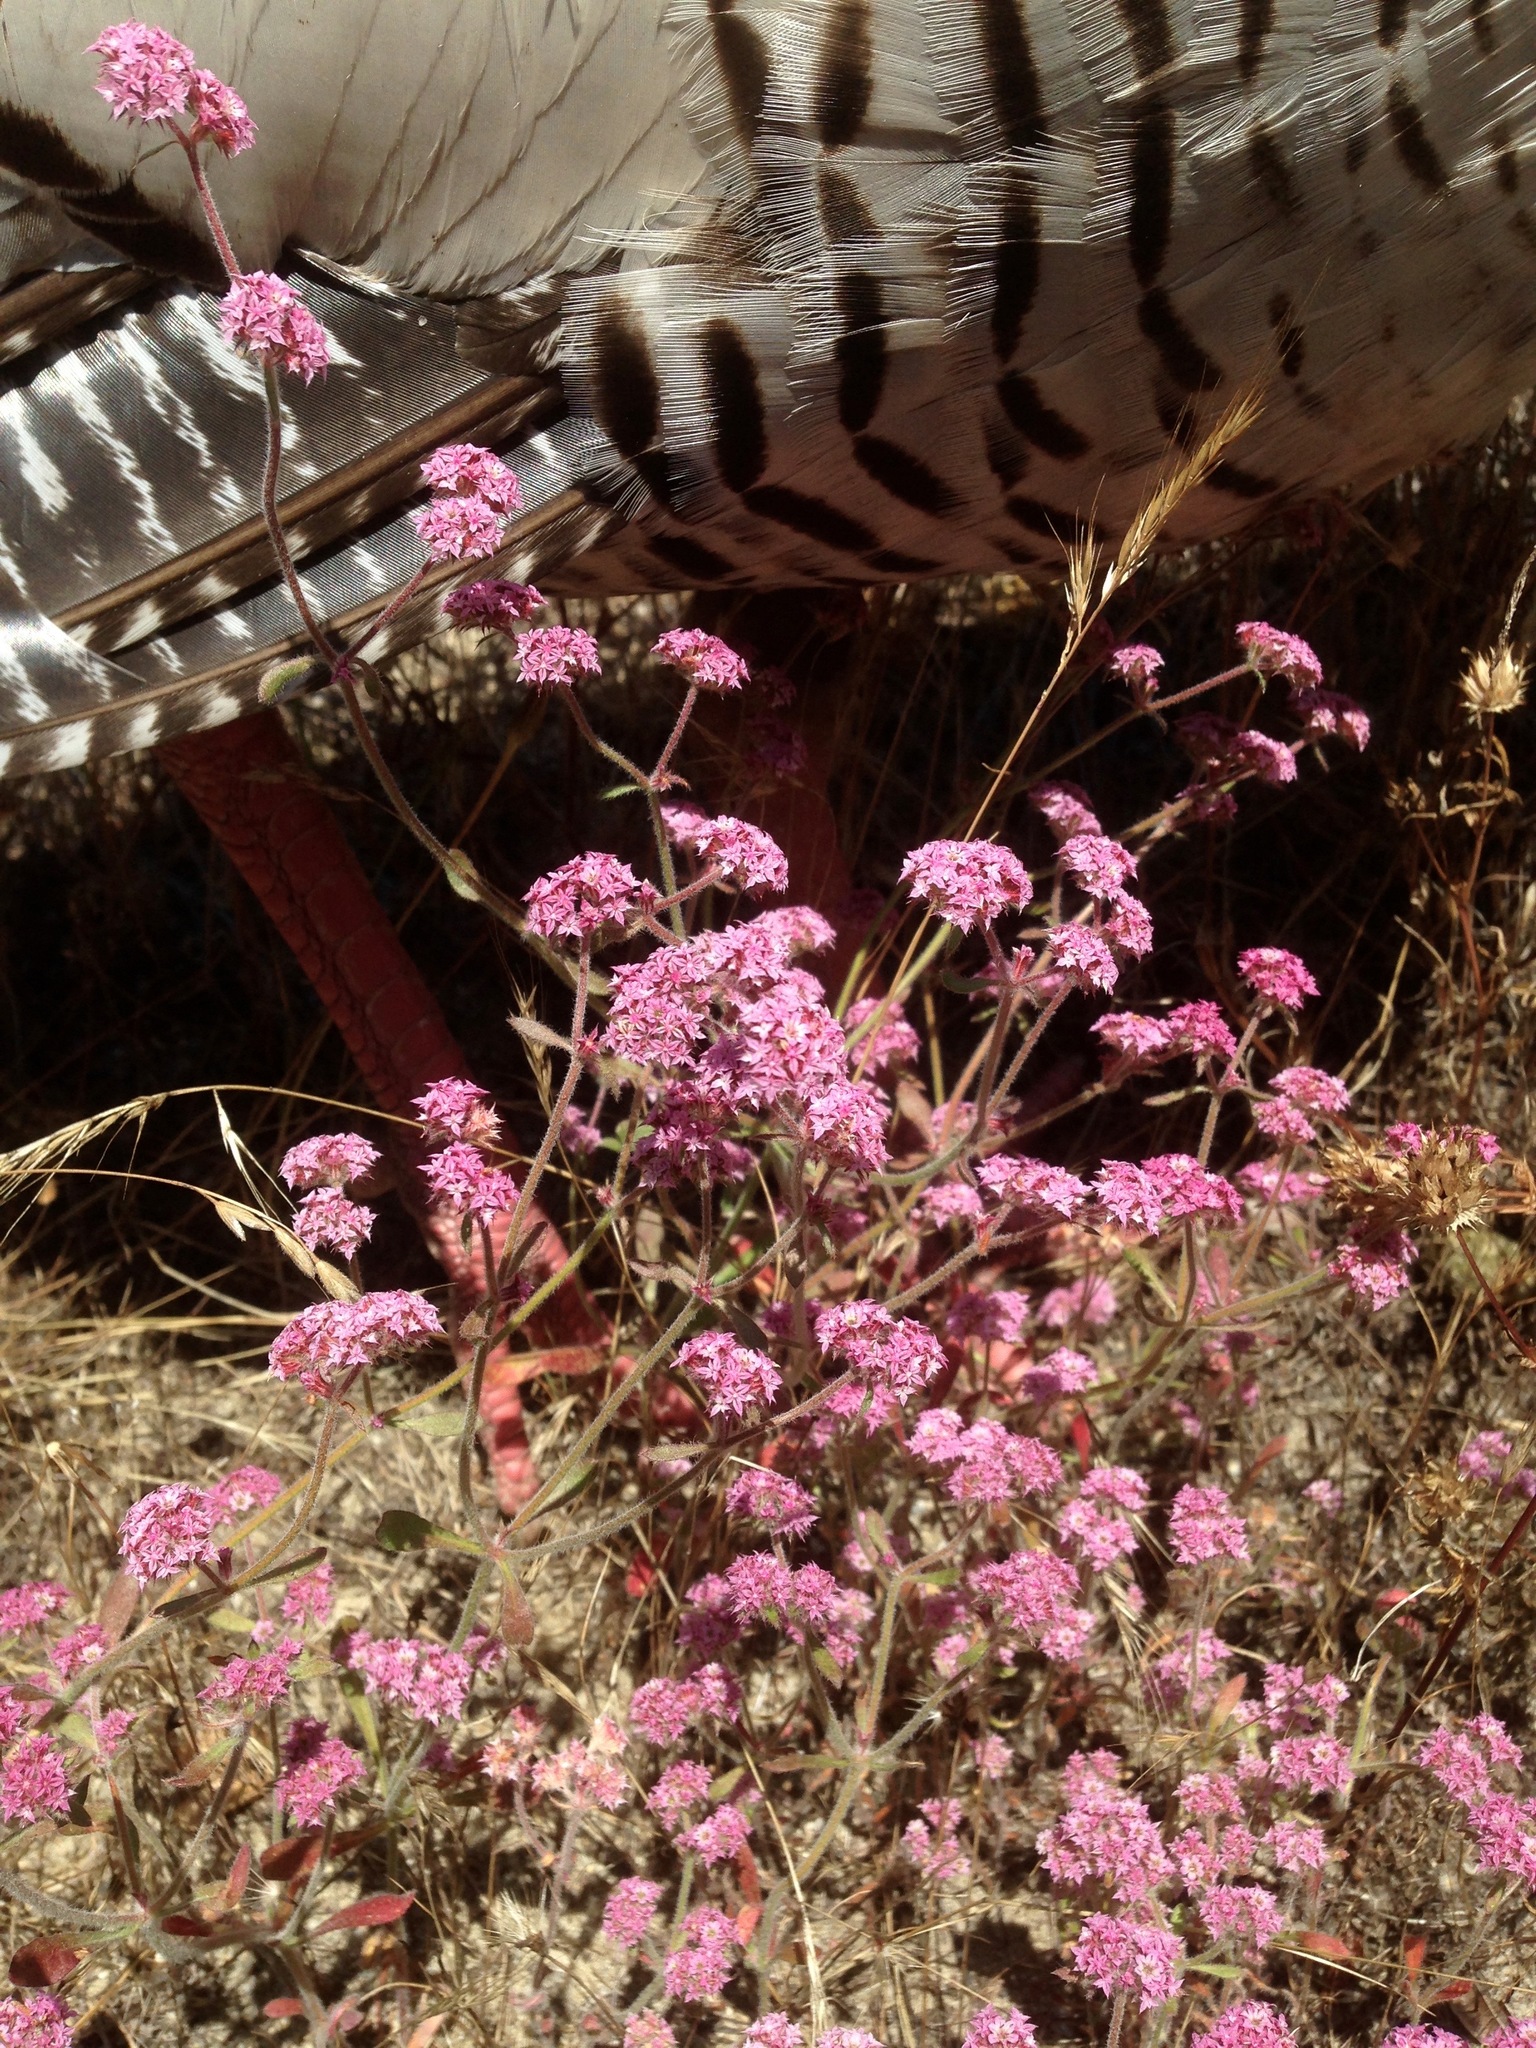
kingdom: Plantae
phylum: Tracheophyta
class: Magnoliopsida
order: Caryophyllales
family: Polygonaceae
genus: Chorizanthe
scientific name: Chorizanthe pungens
